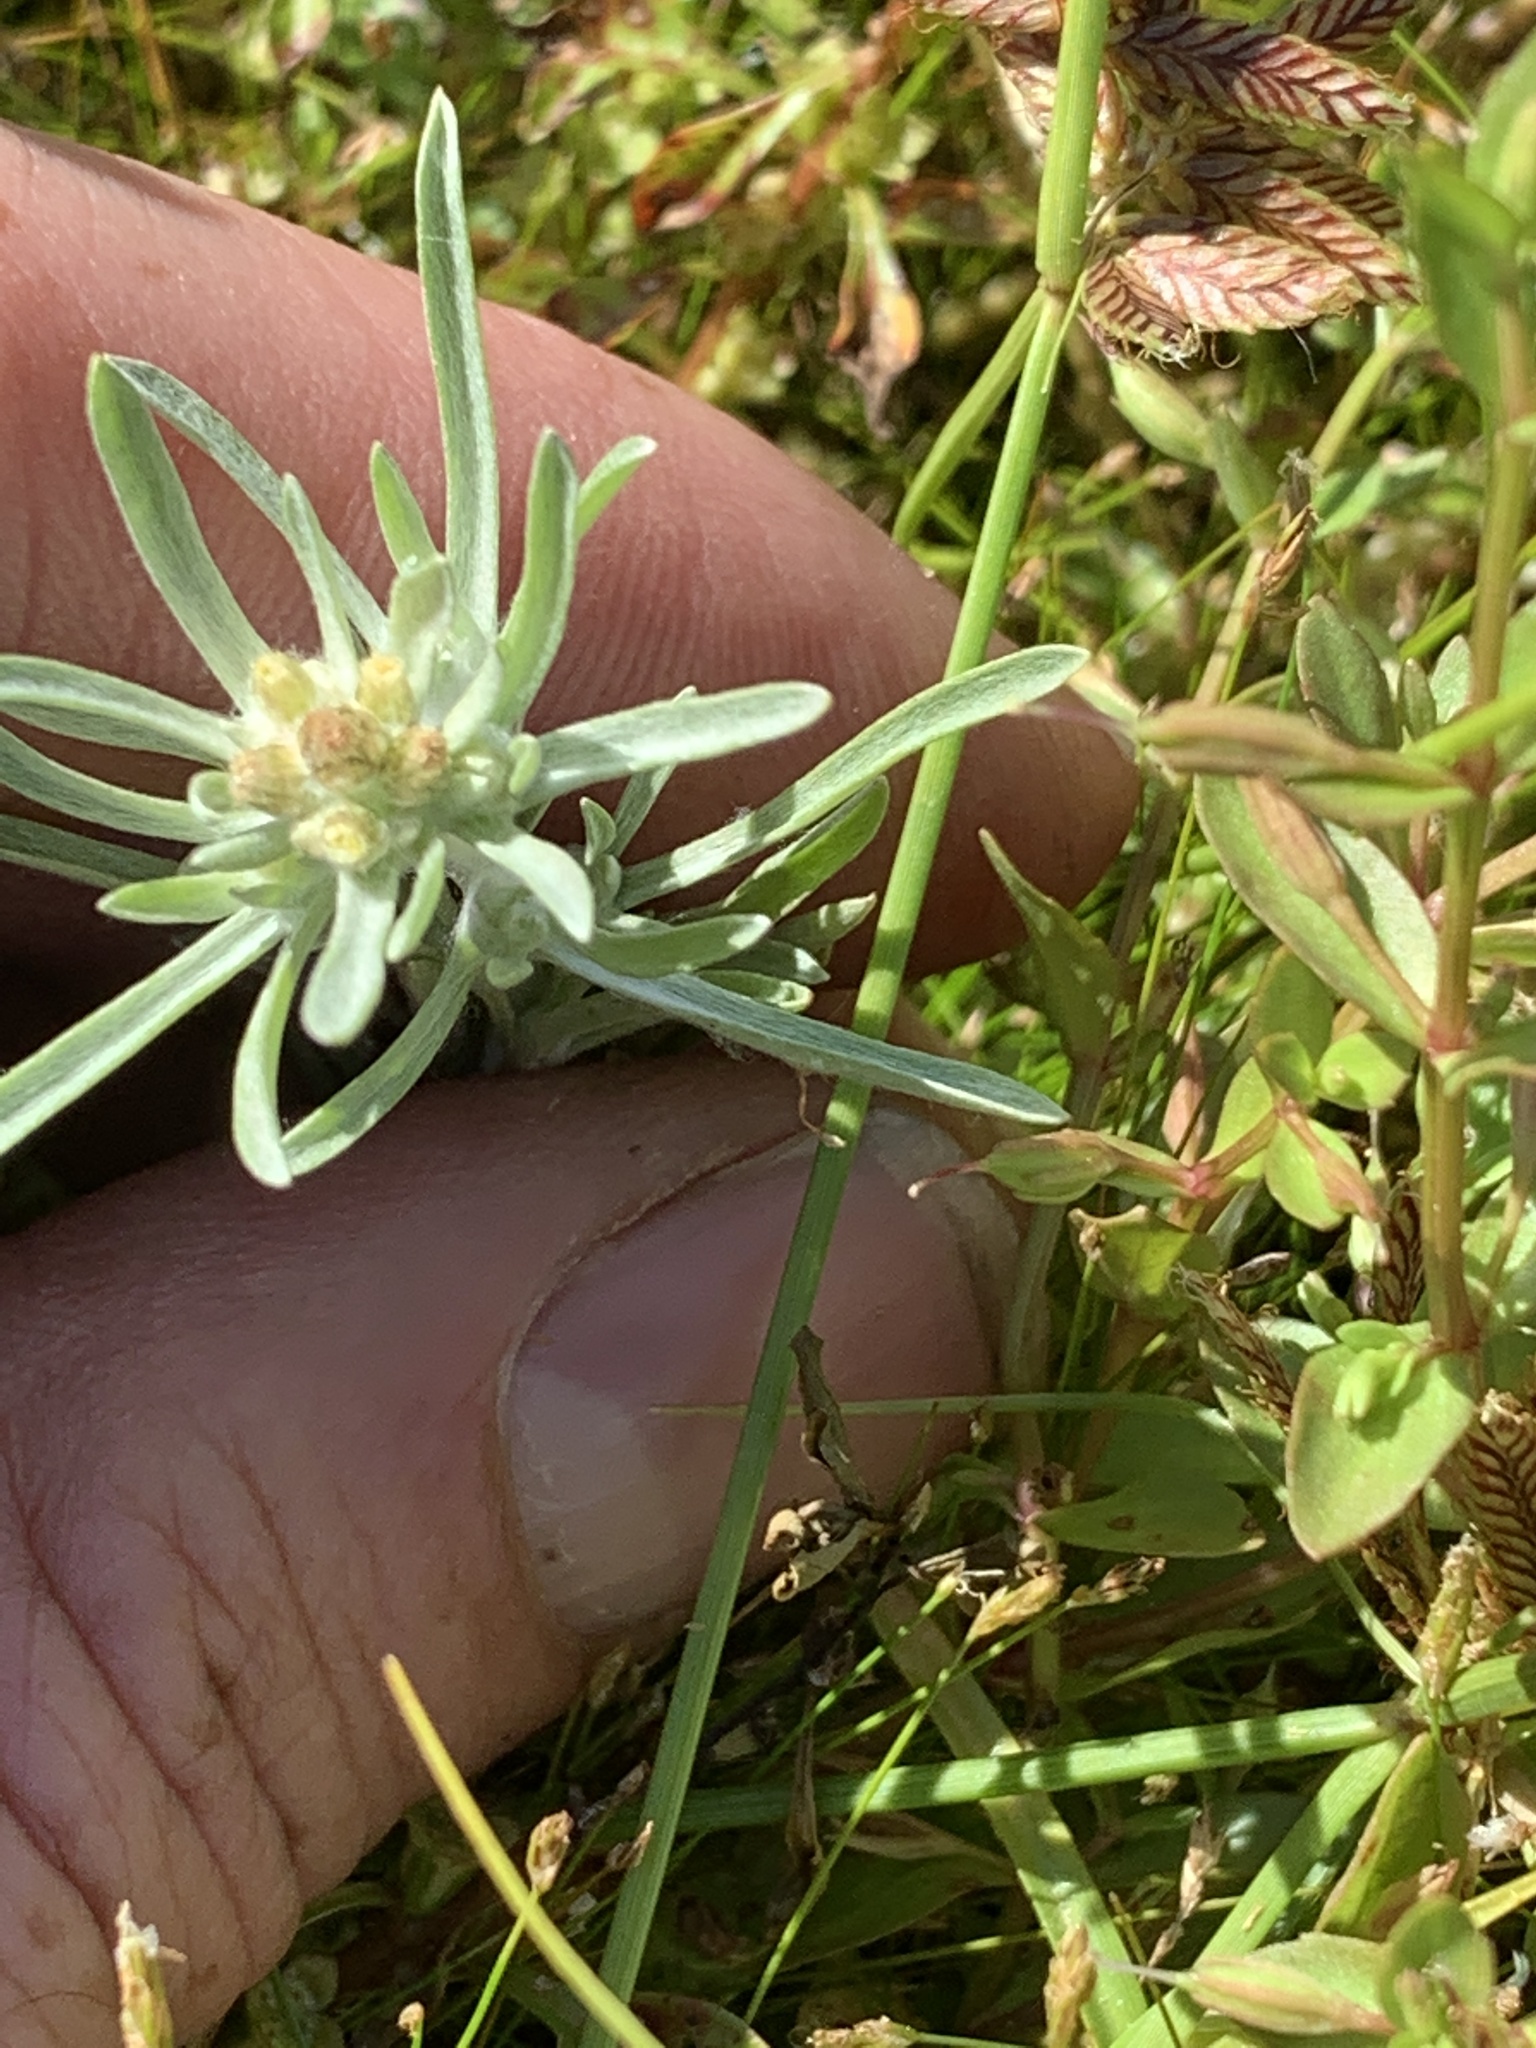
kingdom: Plantae
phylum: Tracheophyta
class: Magnoliopsida
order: Asterales
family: Asteraceae
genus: Gnaphalium
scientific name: Gnaphalium uliginosum
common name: Marsh cudweed
